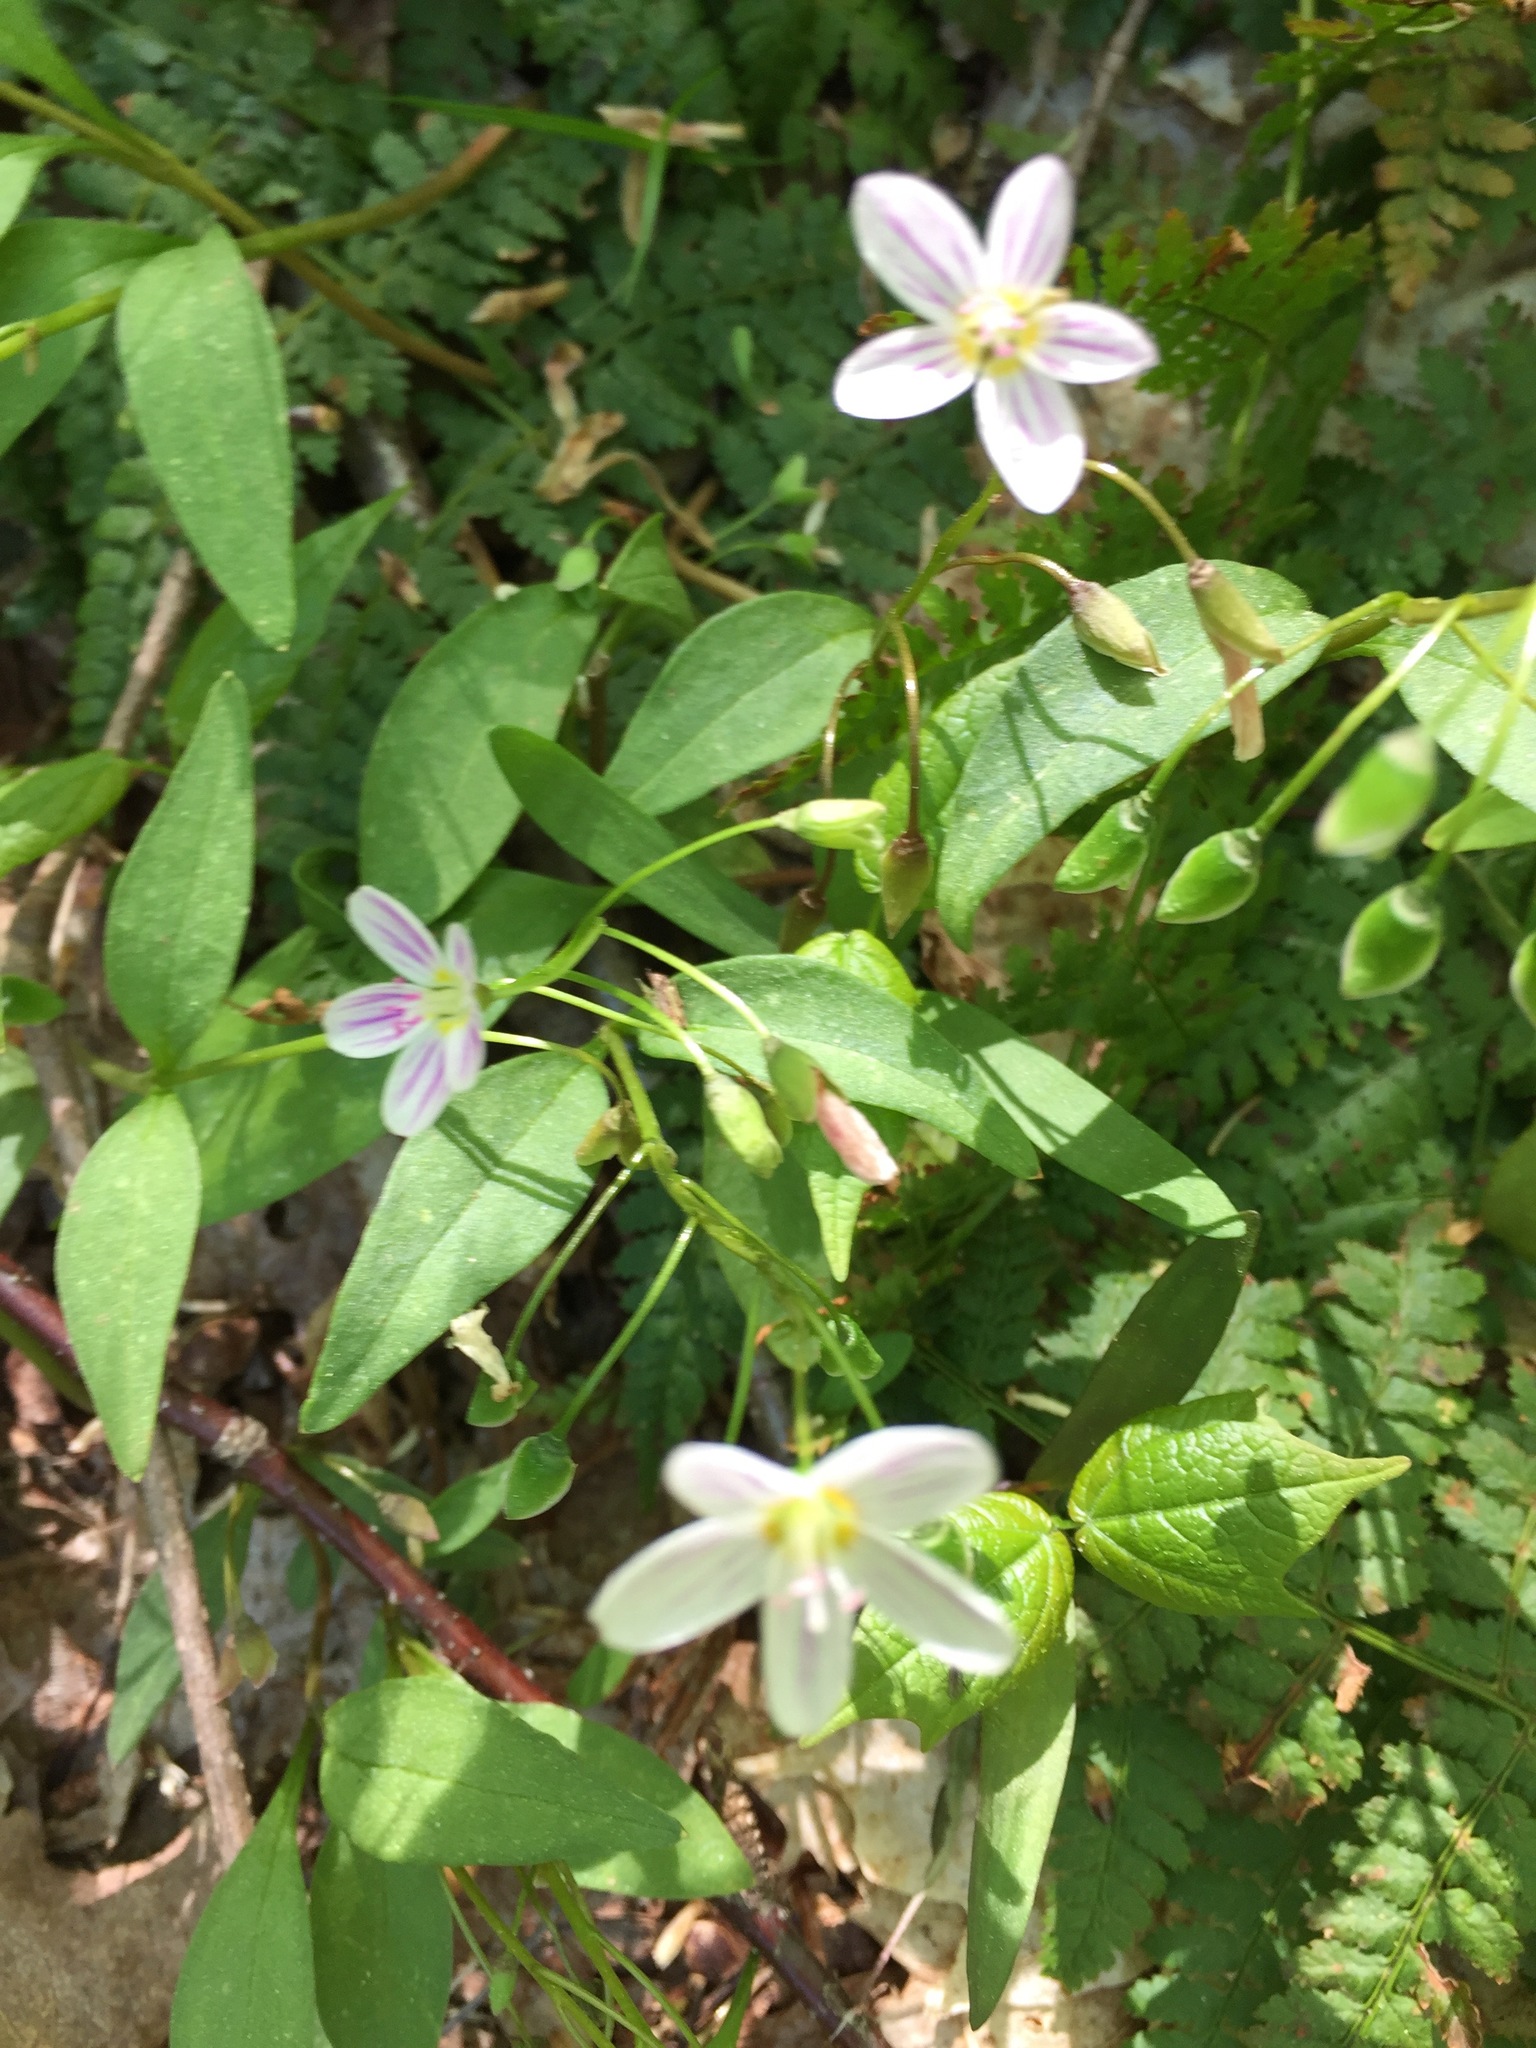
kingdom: Plantae
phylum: Tracheophyta
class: Magnoliopsida
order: Caryophyllales
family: Montiaceae
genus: Claytonia
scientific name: Claytonia caroliniana
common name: Carolina spring beauty
